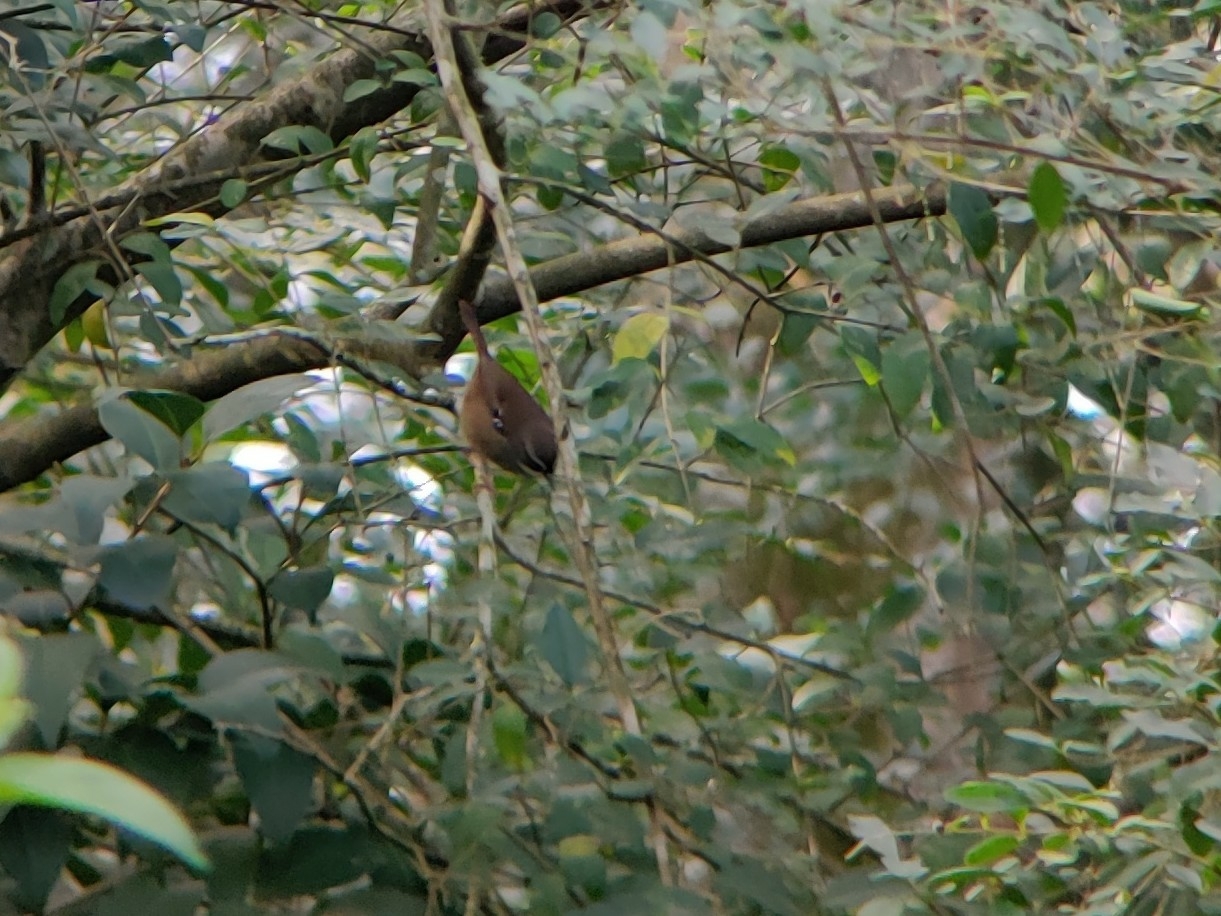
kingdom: Animalia
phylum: Chordata
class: Aves
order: Passeriformes
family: Acanthizidae
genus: Sericornis
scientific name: Sericornis frontalis
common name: White-browed scrubwren
